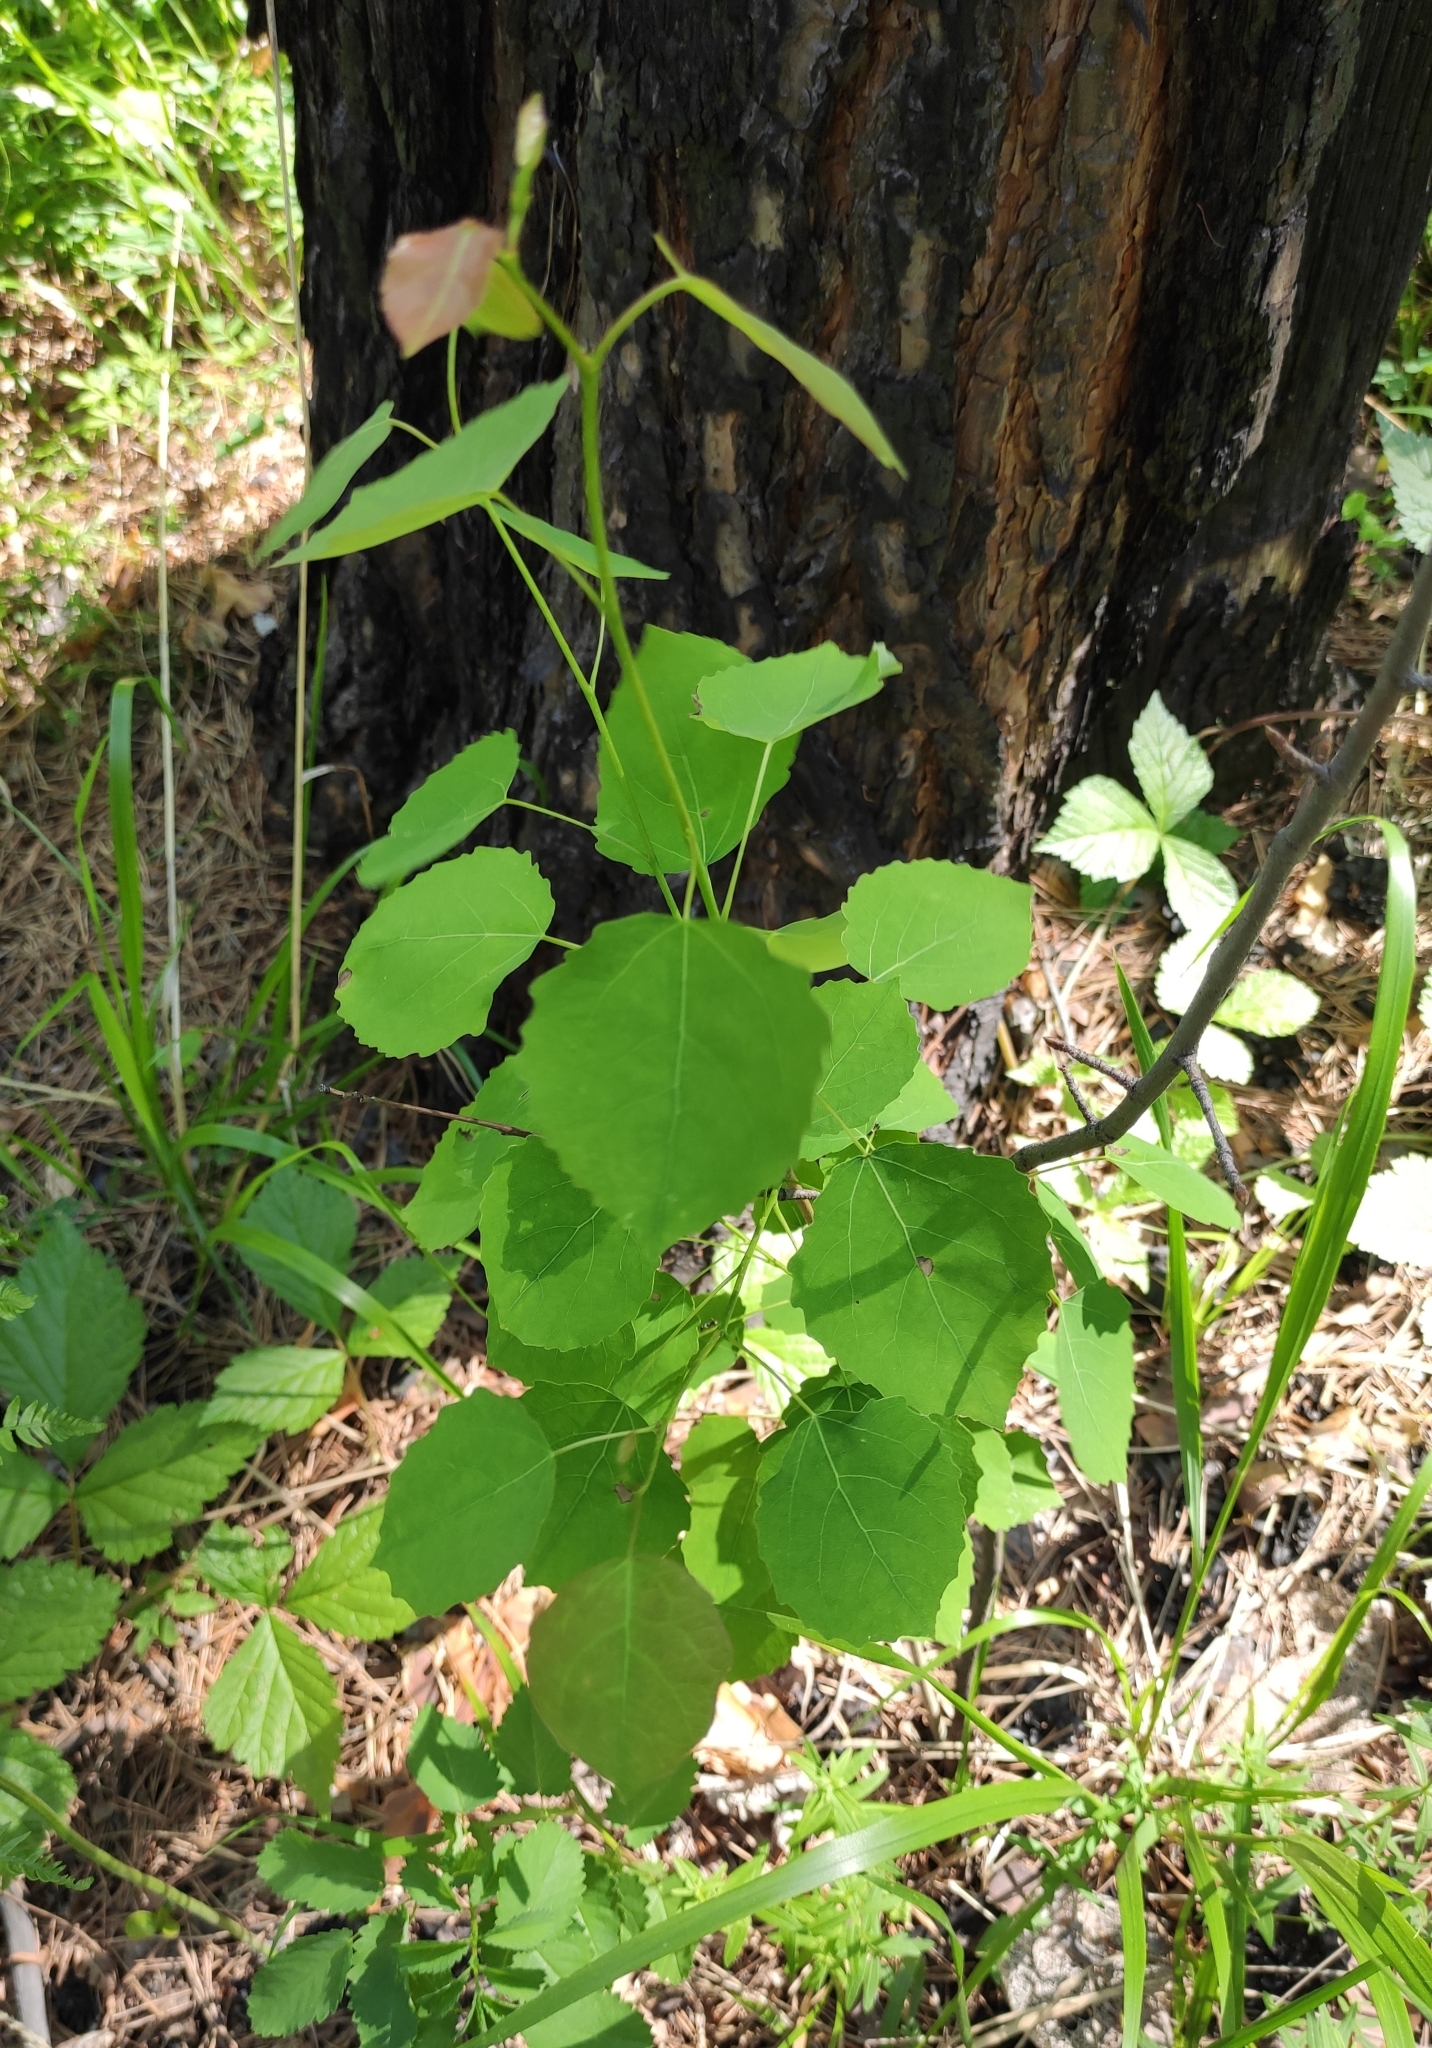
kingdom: Plantae
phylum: Tracheophyta
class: Magnoliopsida
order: Malpighiales
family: Salicaceae
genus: Populus
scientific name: Populus tremula
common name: European aspen
